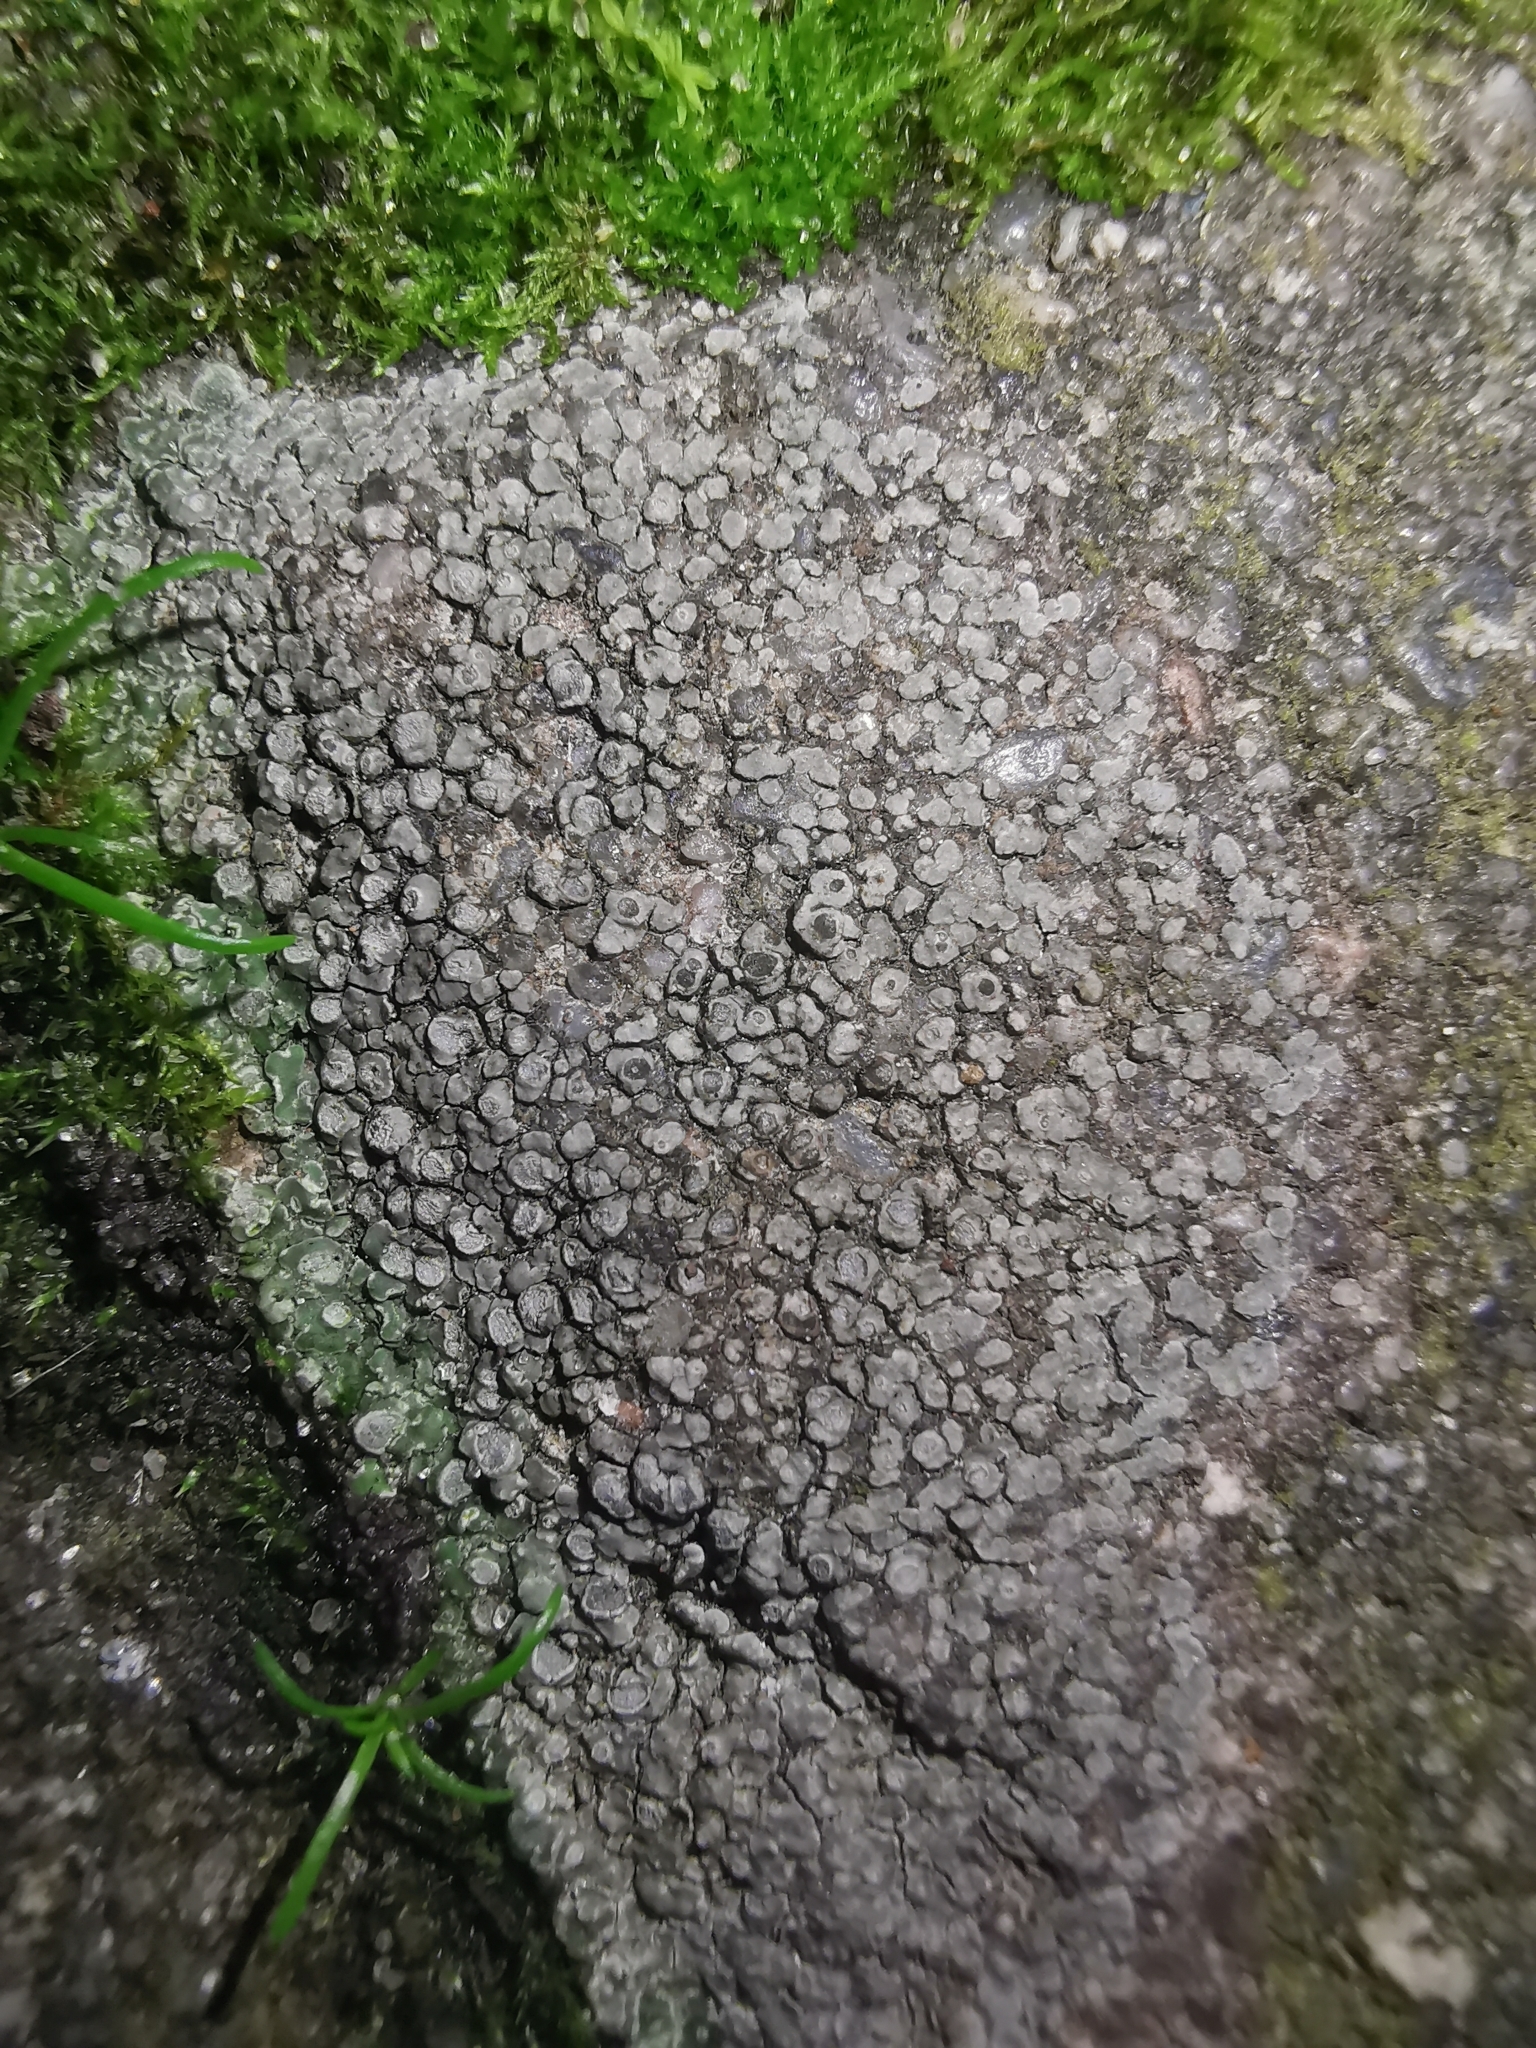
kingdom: Fungi
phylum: Ascomycota
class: Lecanoromycetes
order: Pertusariales
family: Megasporaceae
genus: Circinaria
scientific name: Circinaria contorta
